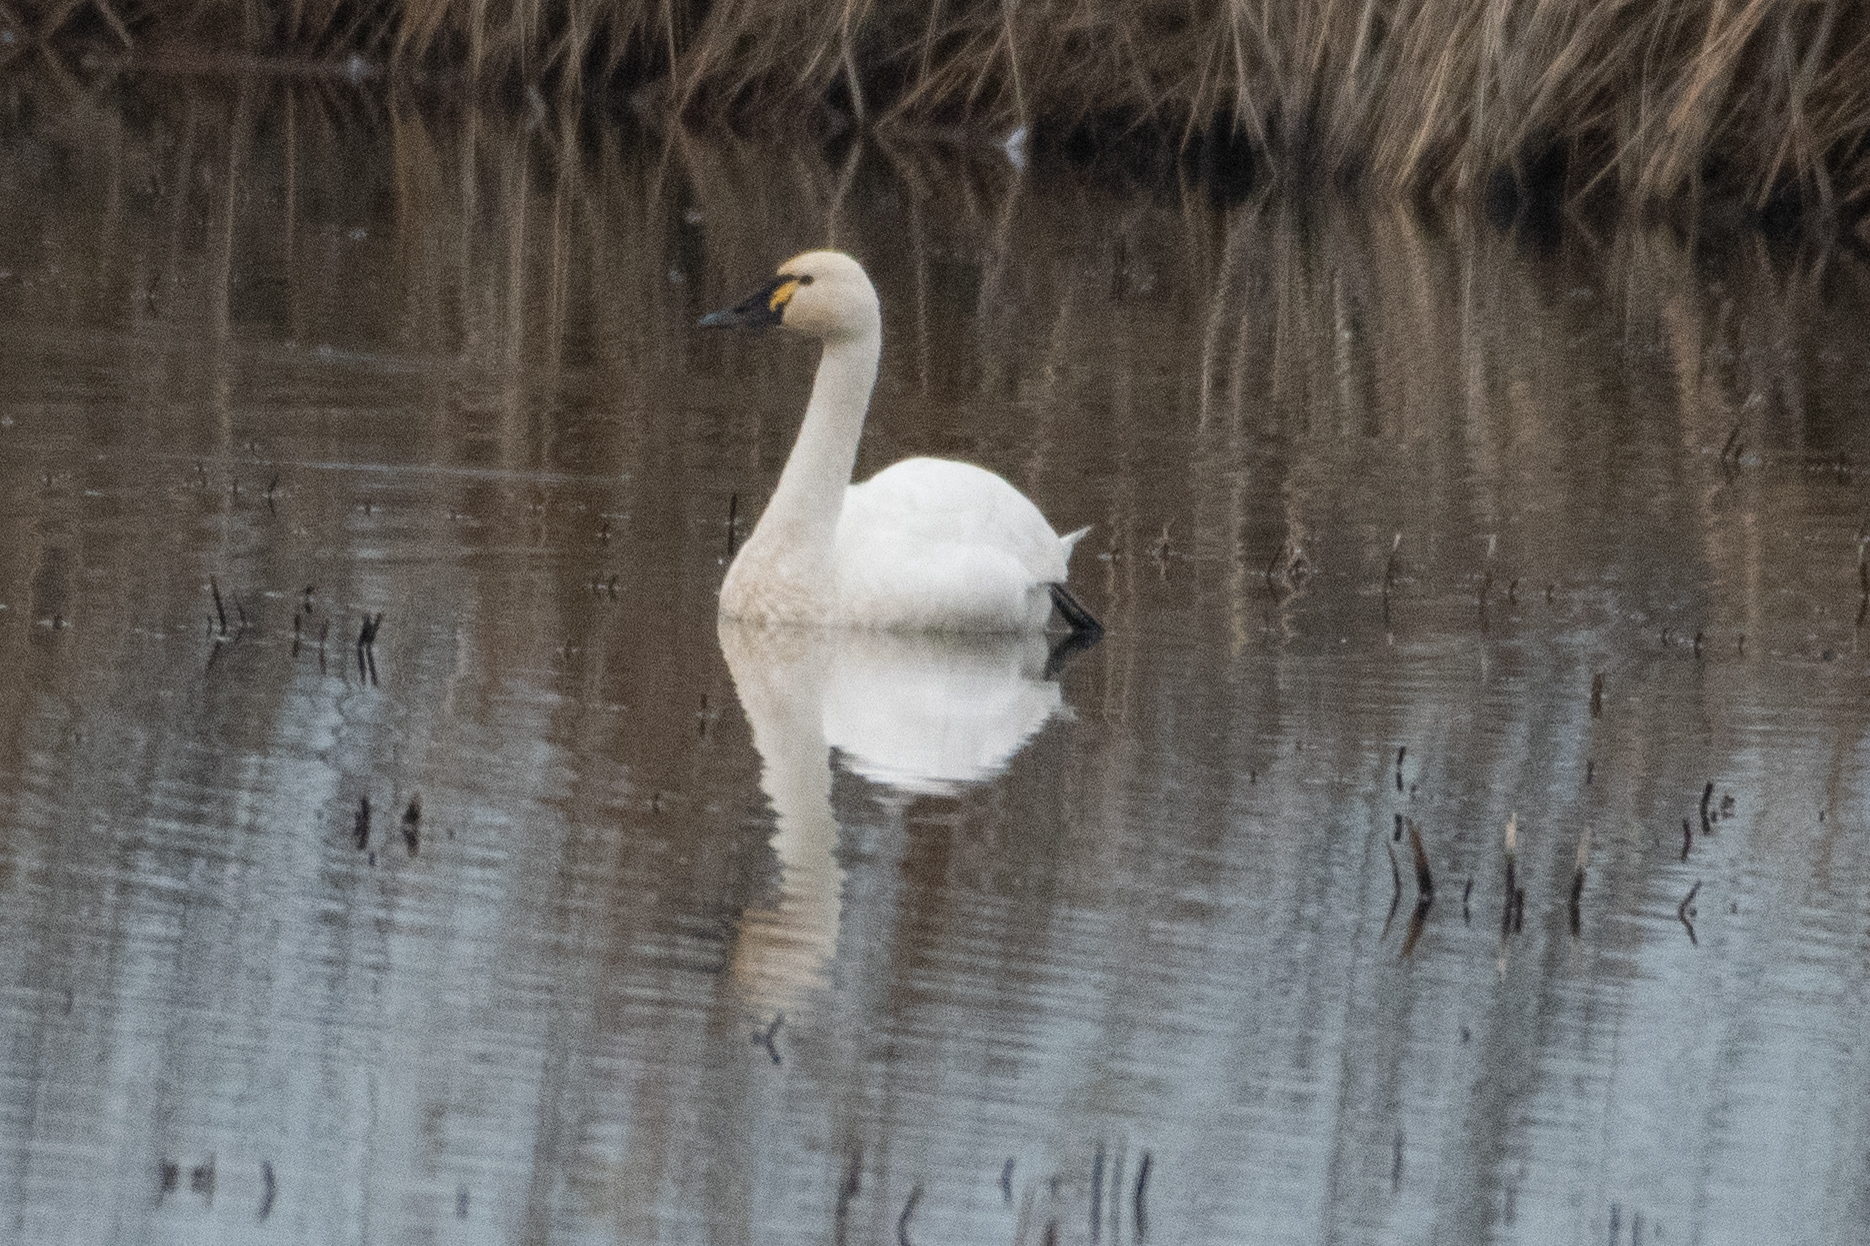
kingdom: Animalia
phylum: Chordata
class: Aves
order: Anseriformes
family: Anatidae
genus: Cygnus
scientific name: Cygnus columbianus
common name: Tundra swan
